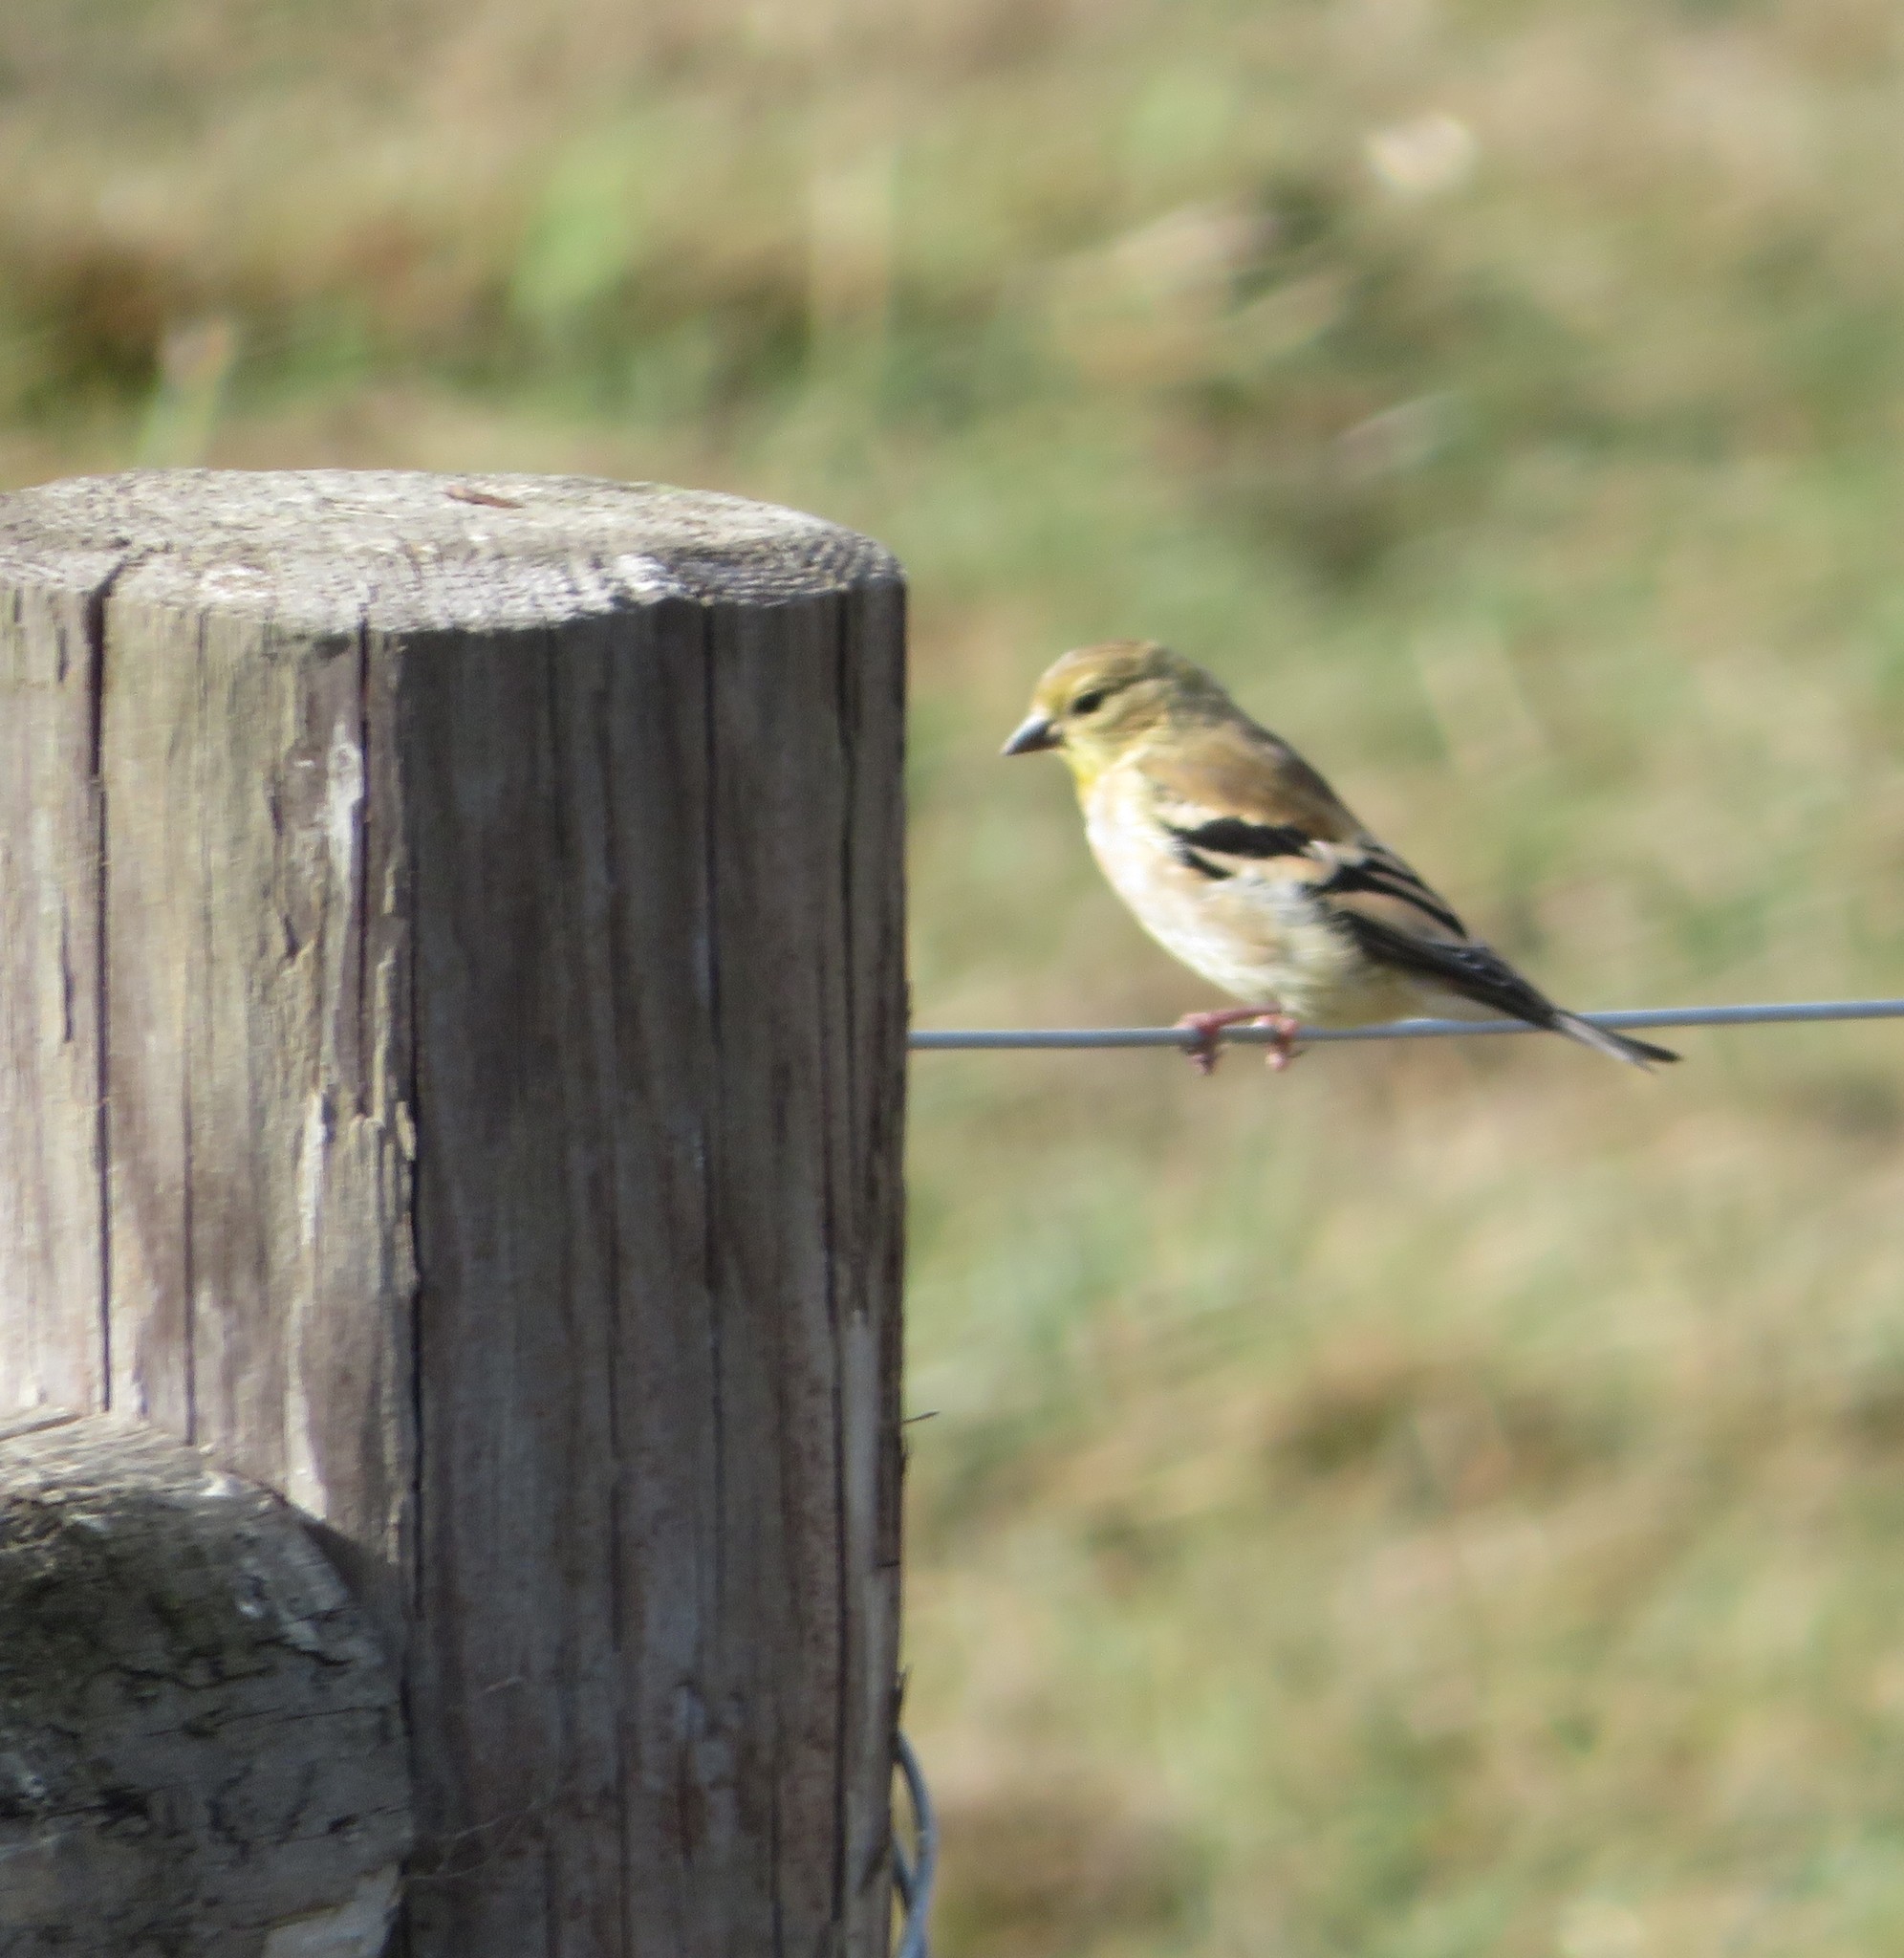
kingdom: Animalia
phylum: Chordata
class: Aves
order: Passeriformes
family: Fringillidae
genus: Spinus
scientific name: Spinus tristis
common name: American goldfinch
